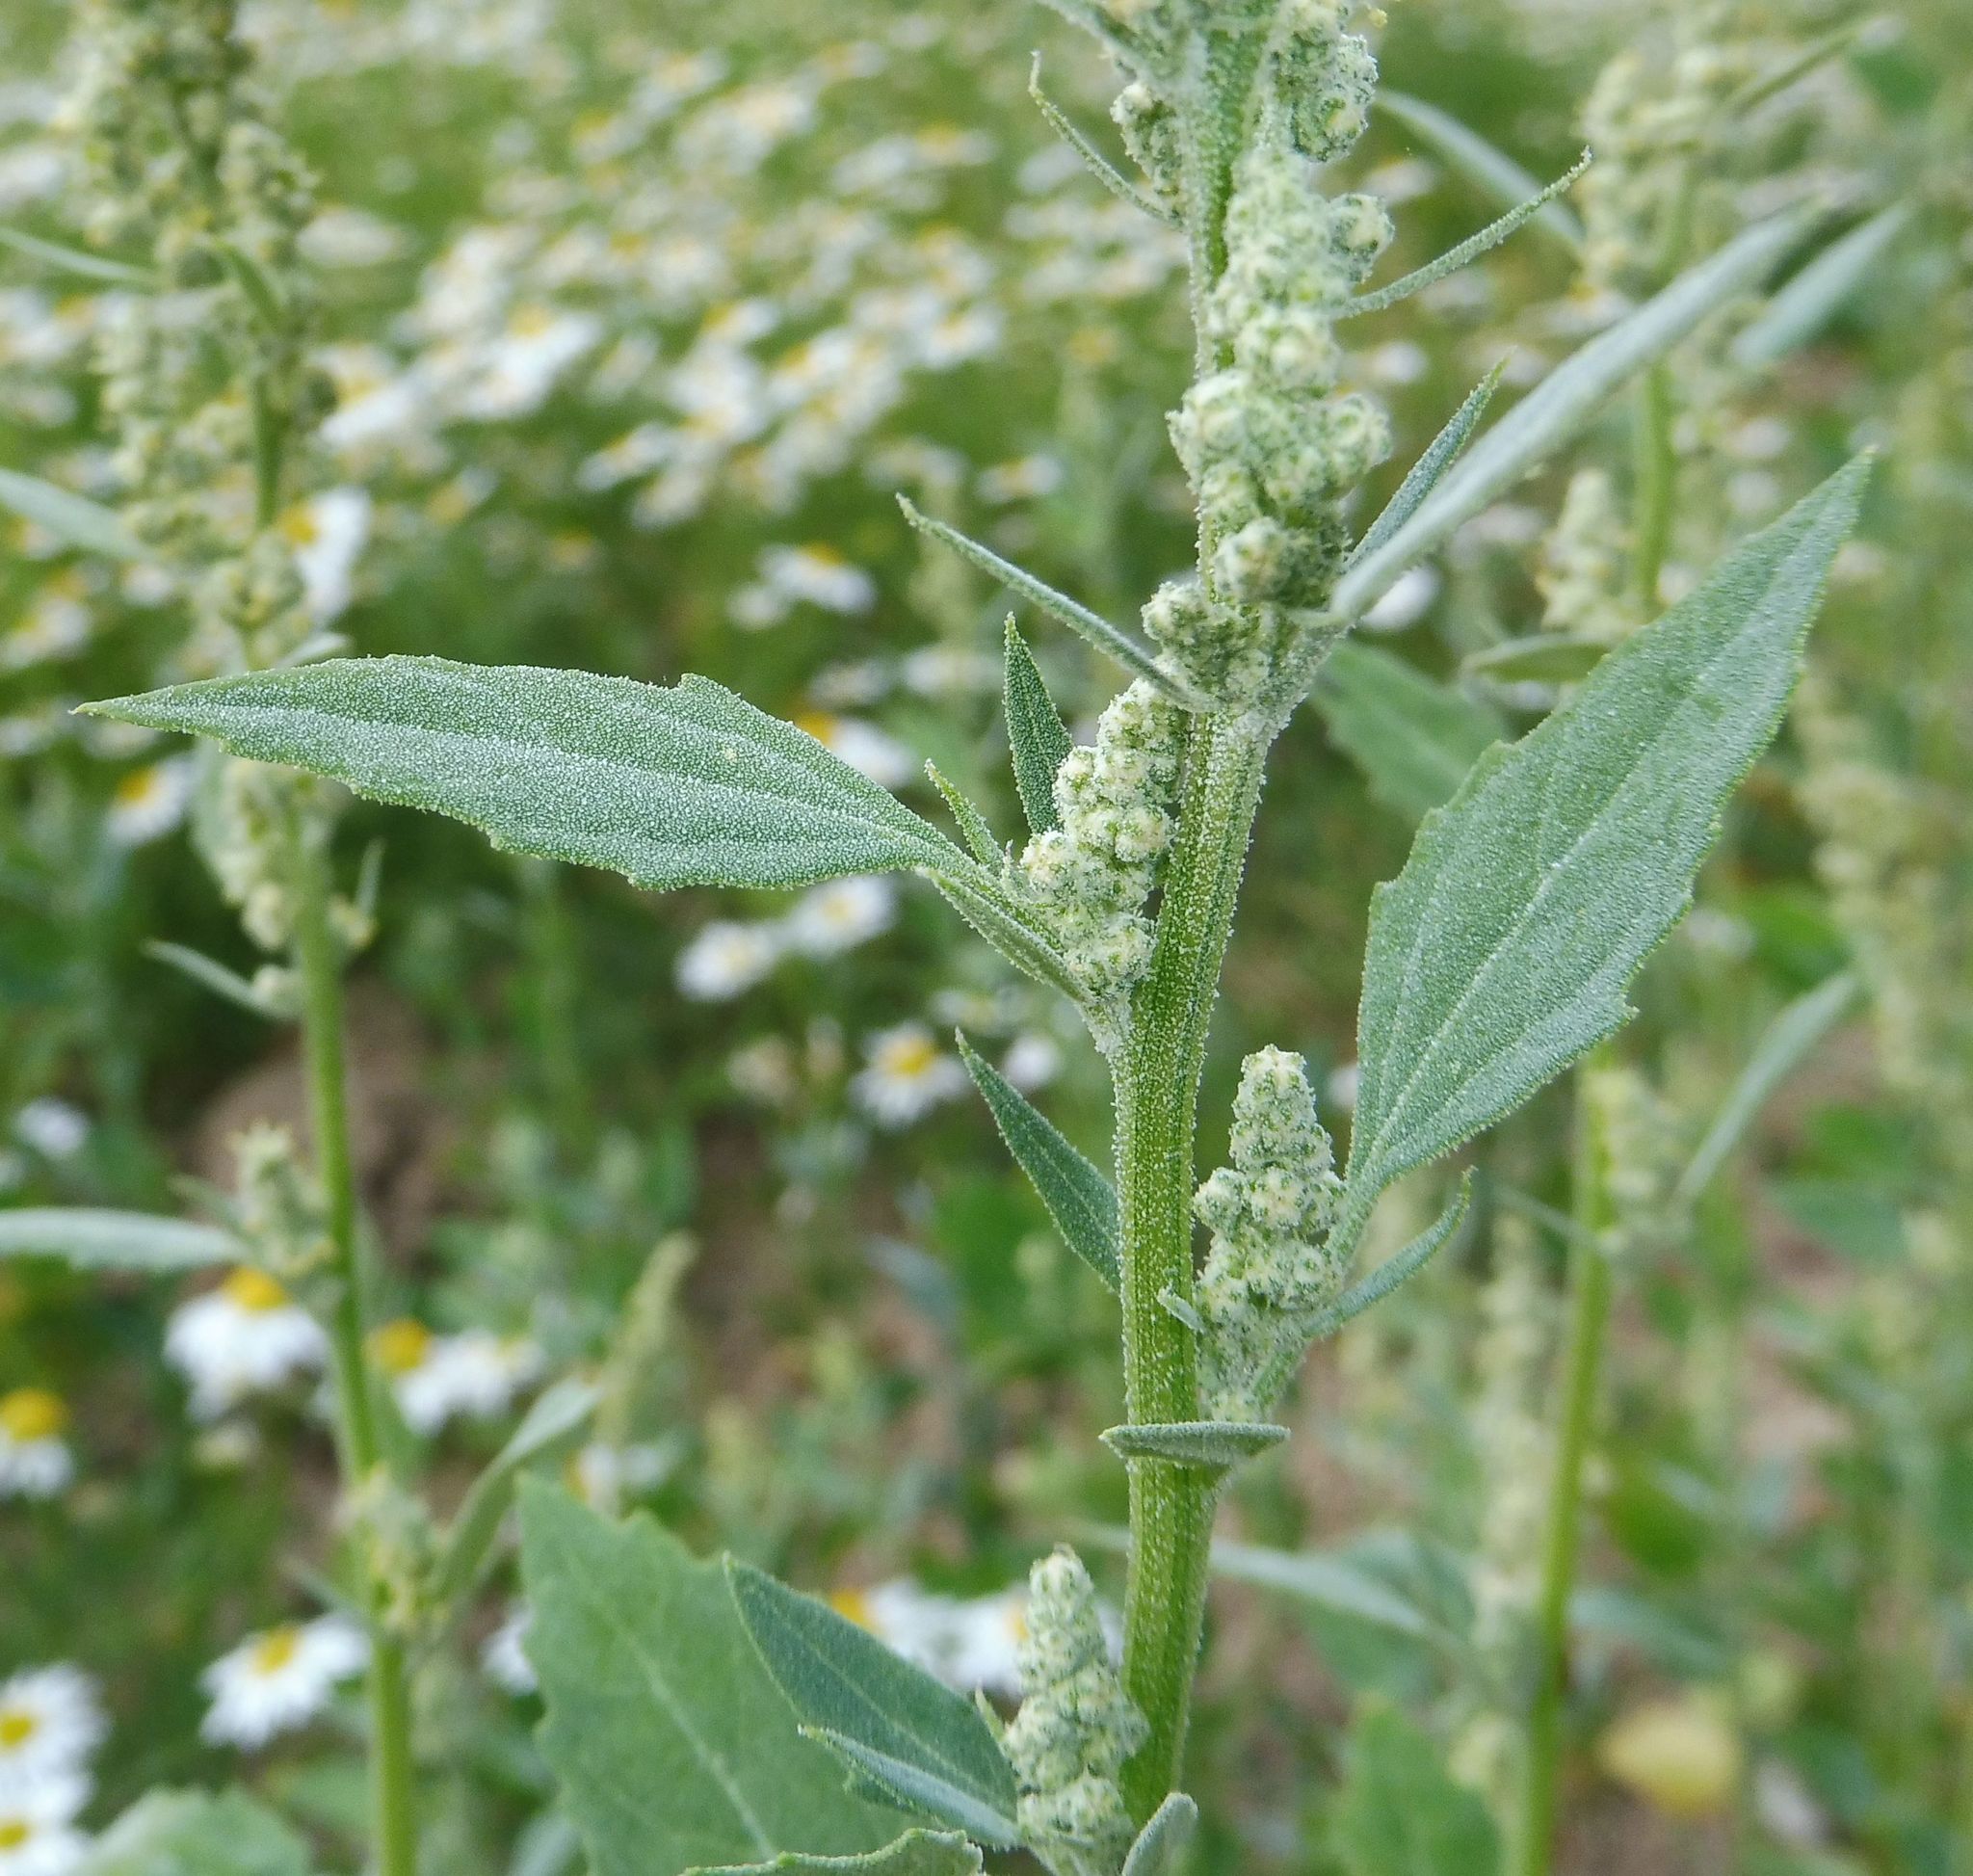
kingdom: Plantae
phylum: Tracheophyta
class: Magnoliopsida
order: Caryophyllales
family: Amaranthaceae
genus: Chenopodium
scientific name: Chenopodium album
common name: Fat-hen
